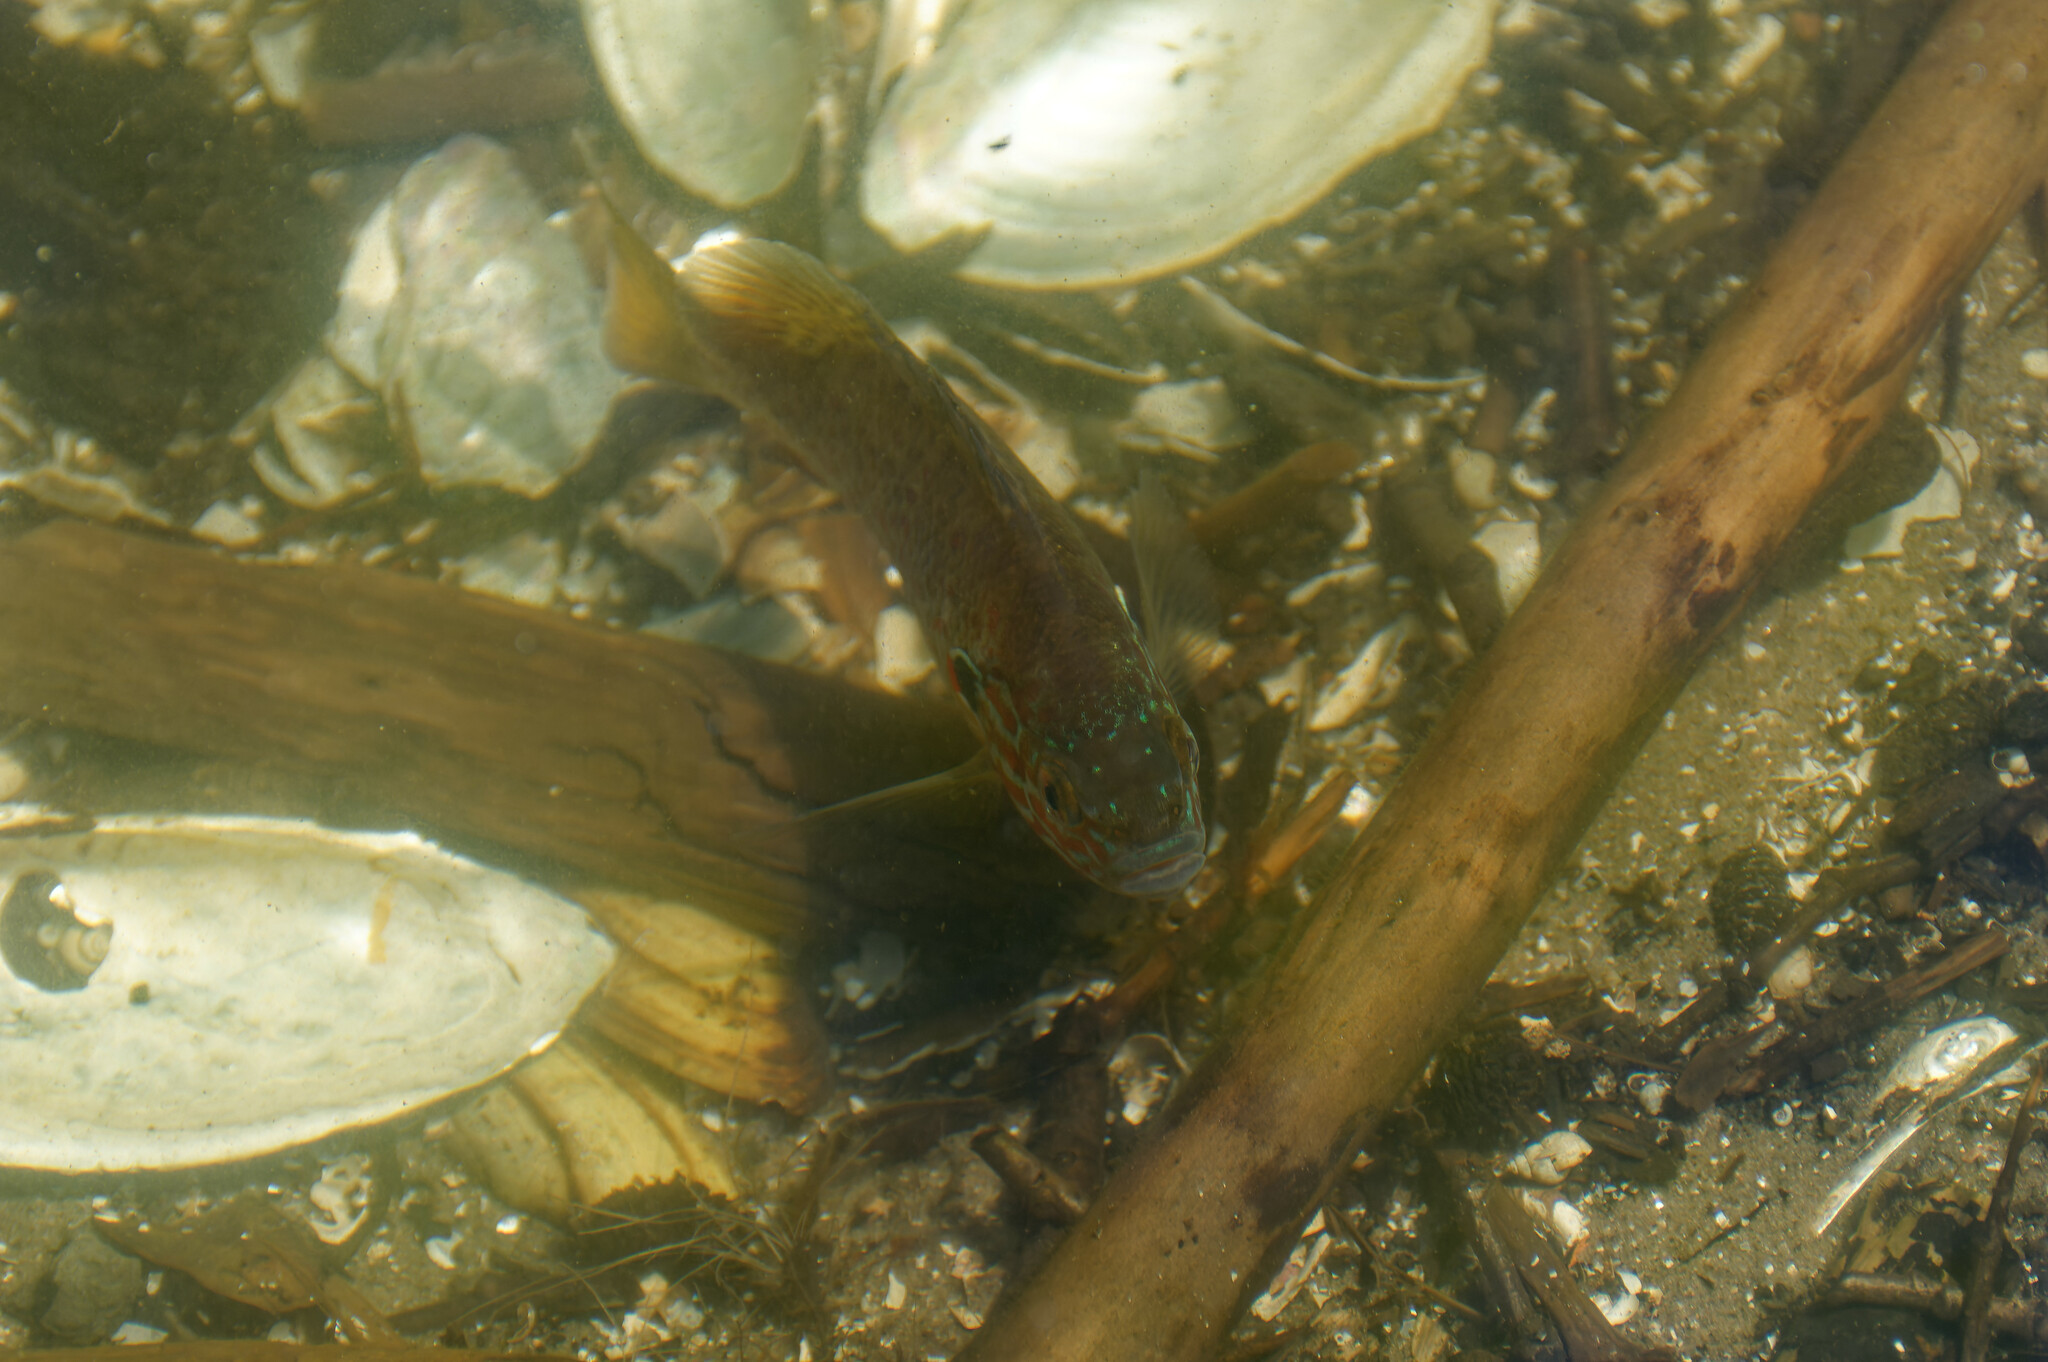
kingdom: Animalia
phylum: Chordata
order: Perciformes
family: Centrarchidae
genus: Lepomis
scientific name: Lepomis gibbosus
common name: Pumpkinseed
